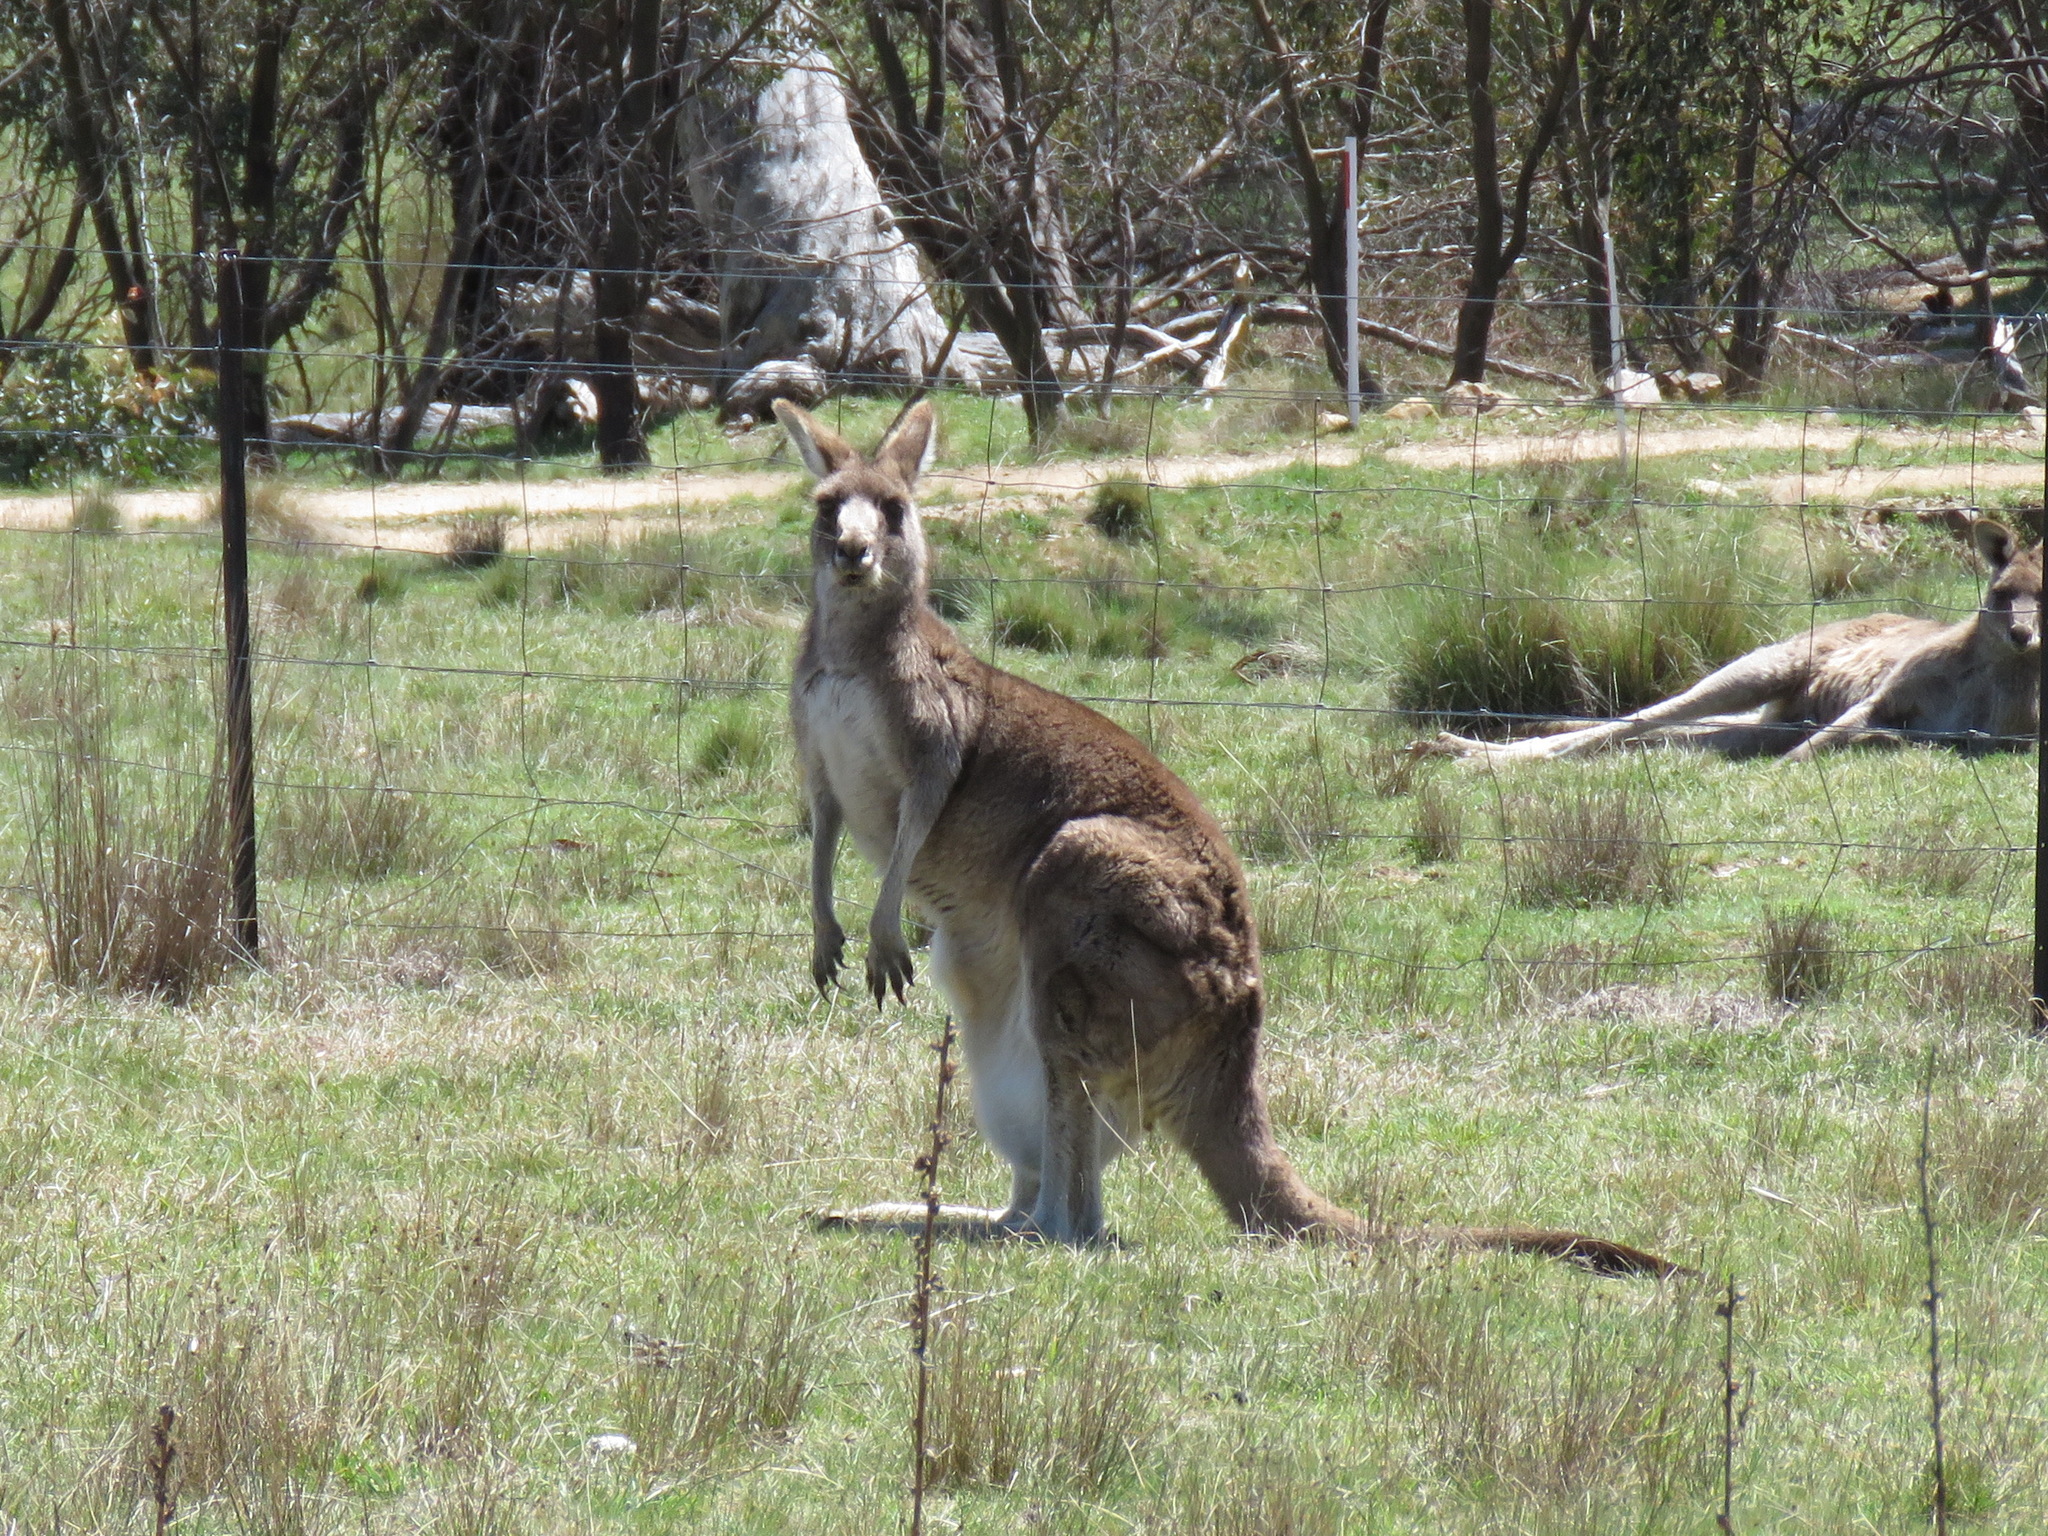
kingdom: Animalia
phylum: Chordata
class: Mammalia
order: Diprotodontia
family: Macropodidae
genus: Macropus
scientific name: Macropus giganteus
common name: Eastern grey kangaroo
